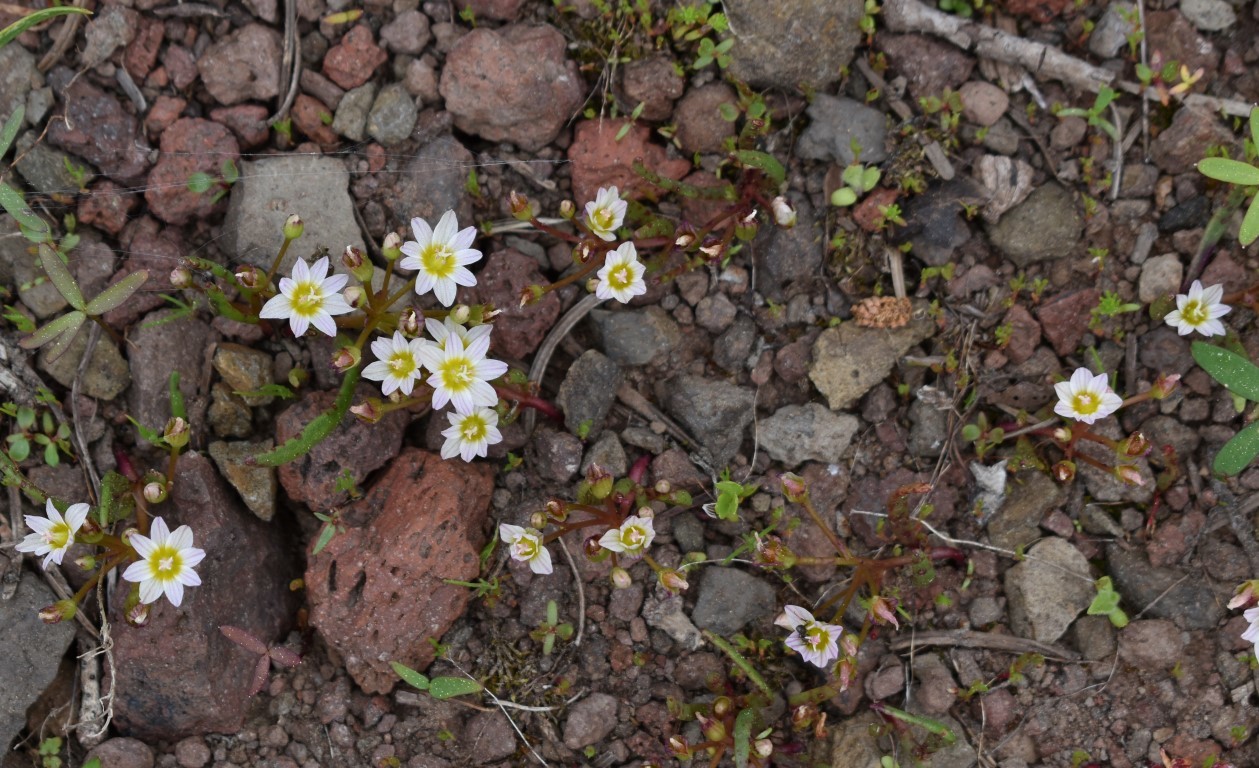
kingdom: Plantae
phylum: Tracheophyta
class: Magnoliopsida
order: Caryophyllales
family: Montiaceae
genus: Lewisia
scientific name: Lewisia triphylla
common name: Three-leaved bitterroot
